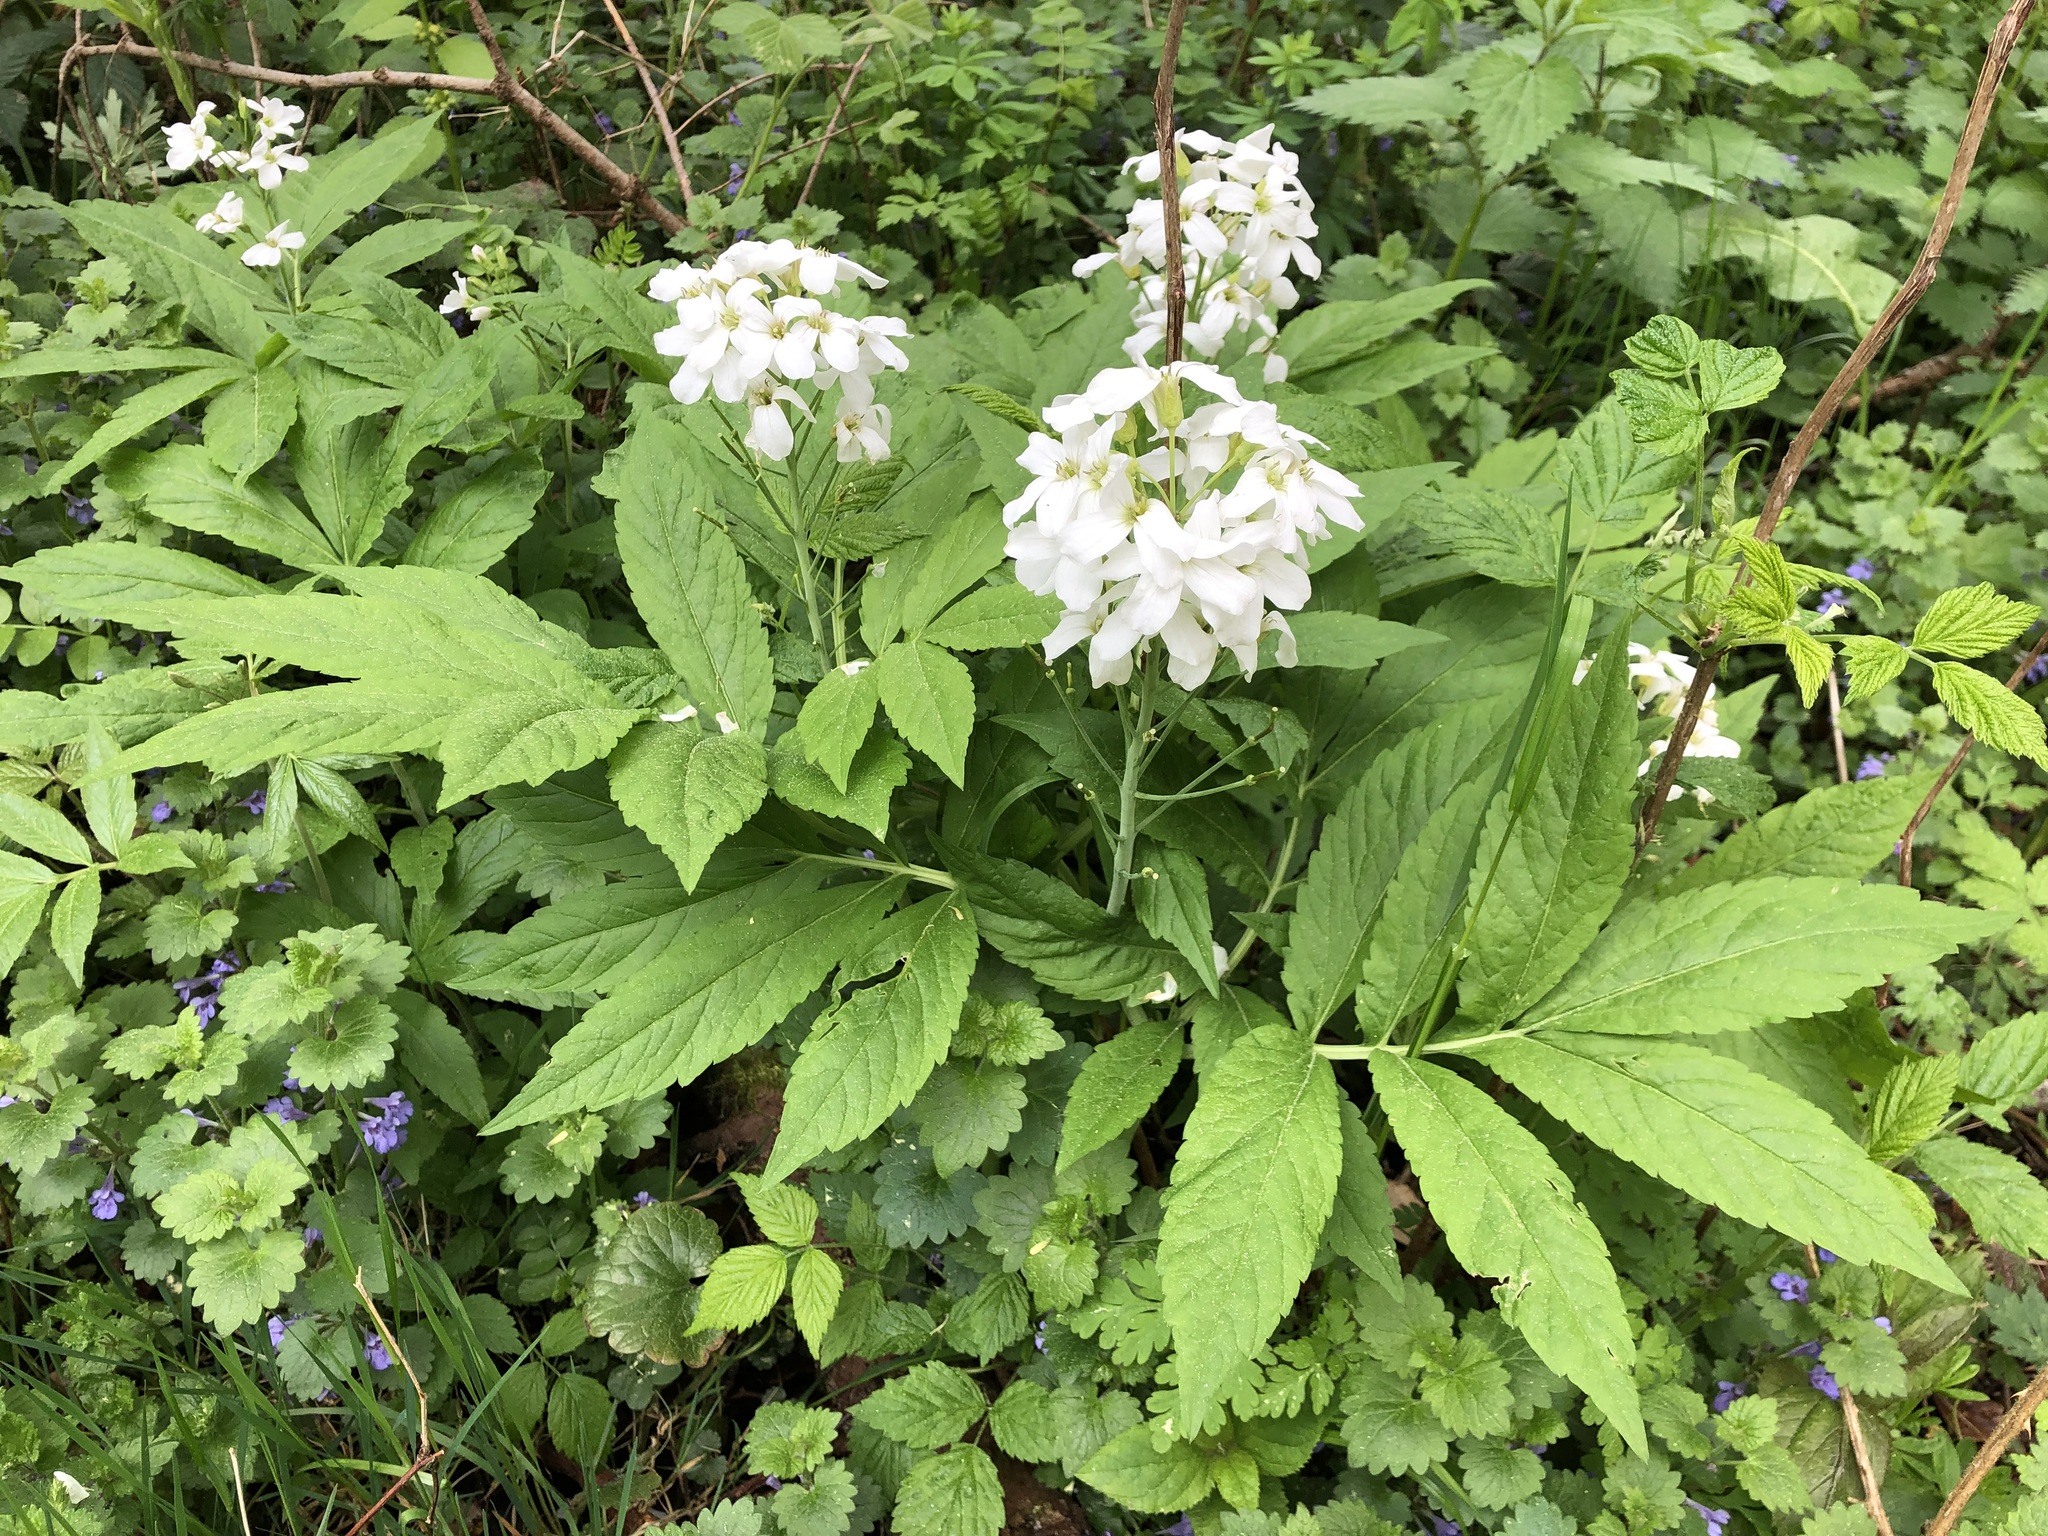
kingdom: Plantae
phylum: Tracheophyta
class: Magnoliopsida
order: Brassicales
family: Brassicaceae
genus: Cardamine
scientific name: Cardamine heptaphylla
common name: Pinnate coralroot
